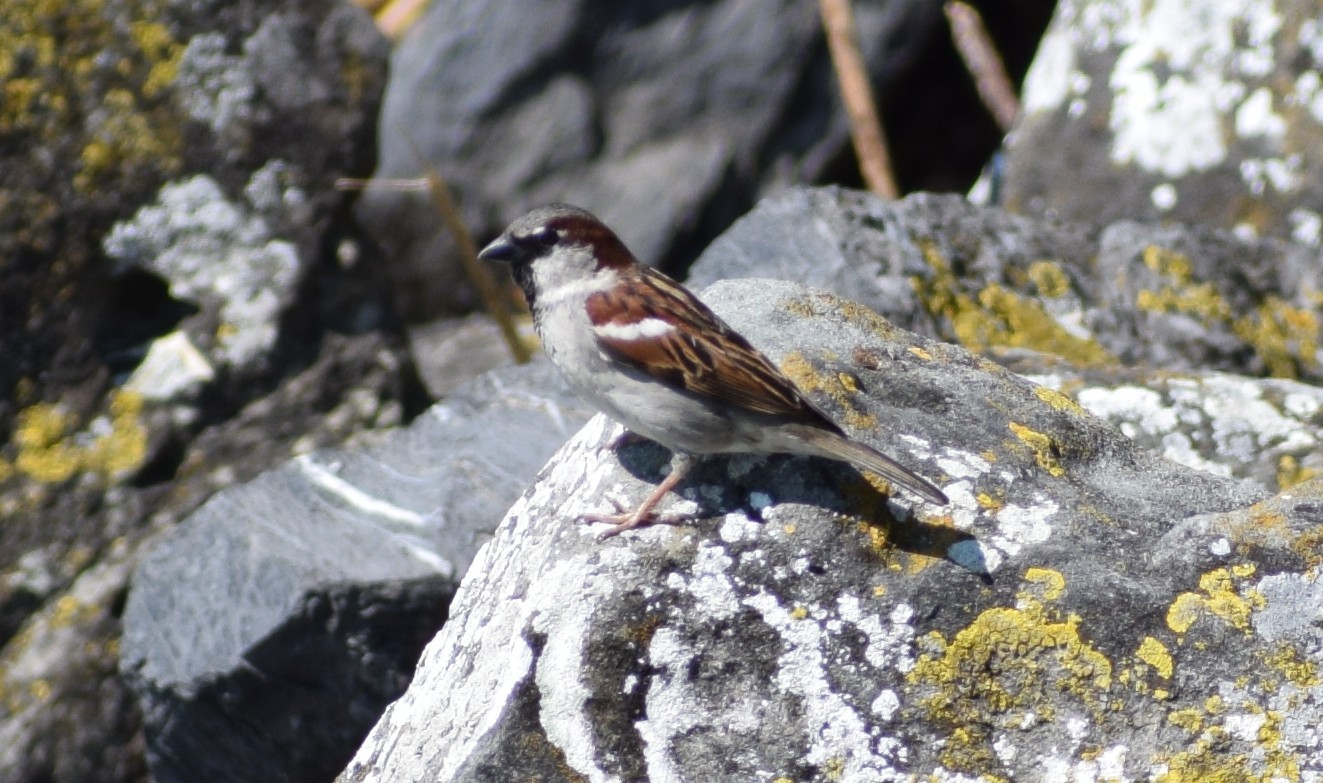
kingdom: Animalia
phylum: Chordata
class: Aves
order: Passeriformes
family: Passeridae
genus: Passer
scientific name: Passer domesticus
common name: House sparrow
